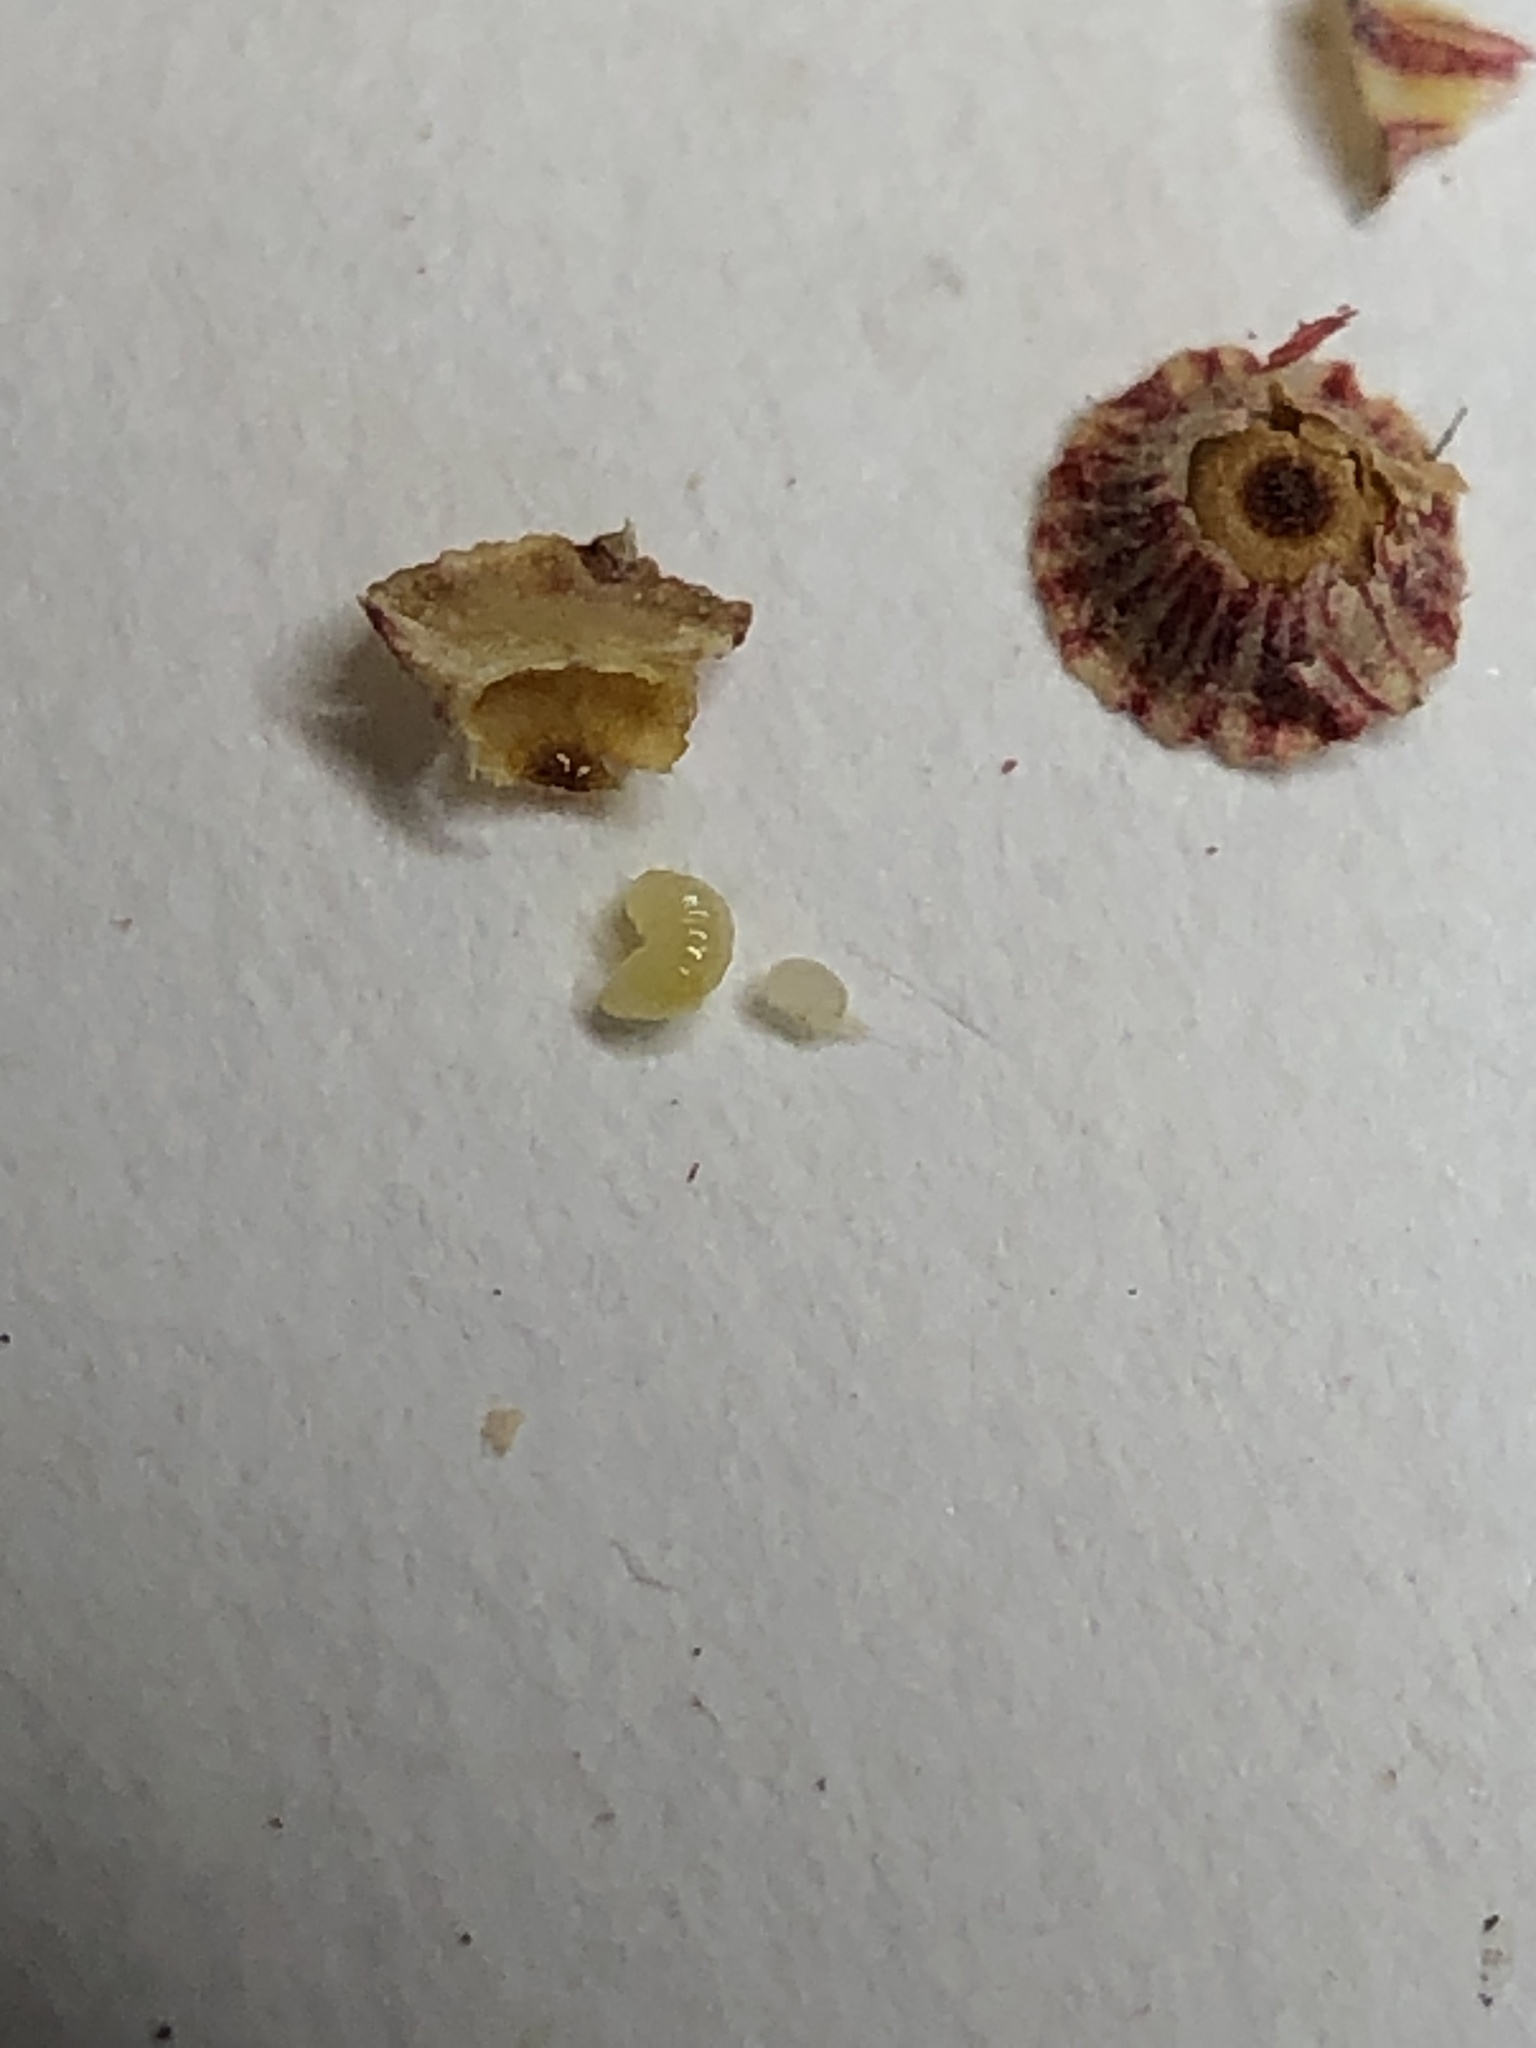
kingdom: Animalia
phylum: Arthropoda
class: Insecta
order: Hymenoptera
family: Cynipidae
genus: Andricus
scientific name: Andricus
